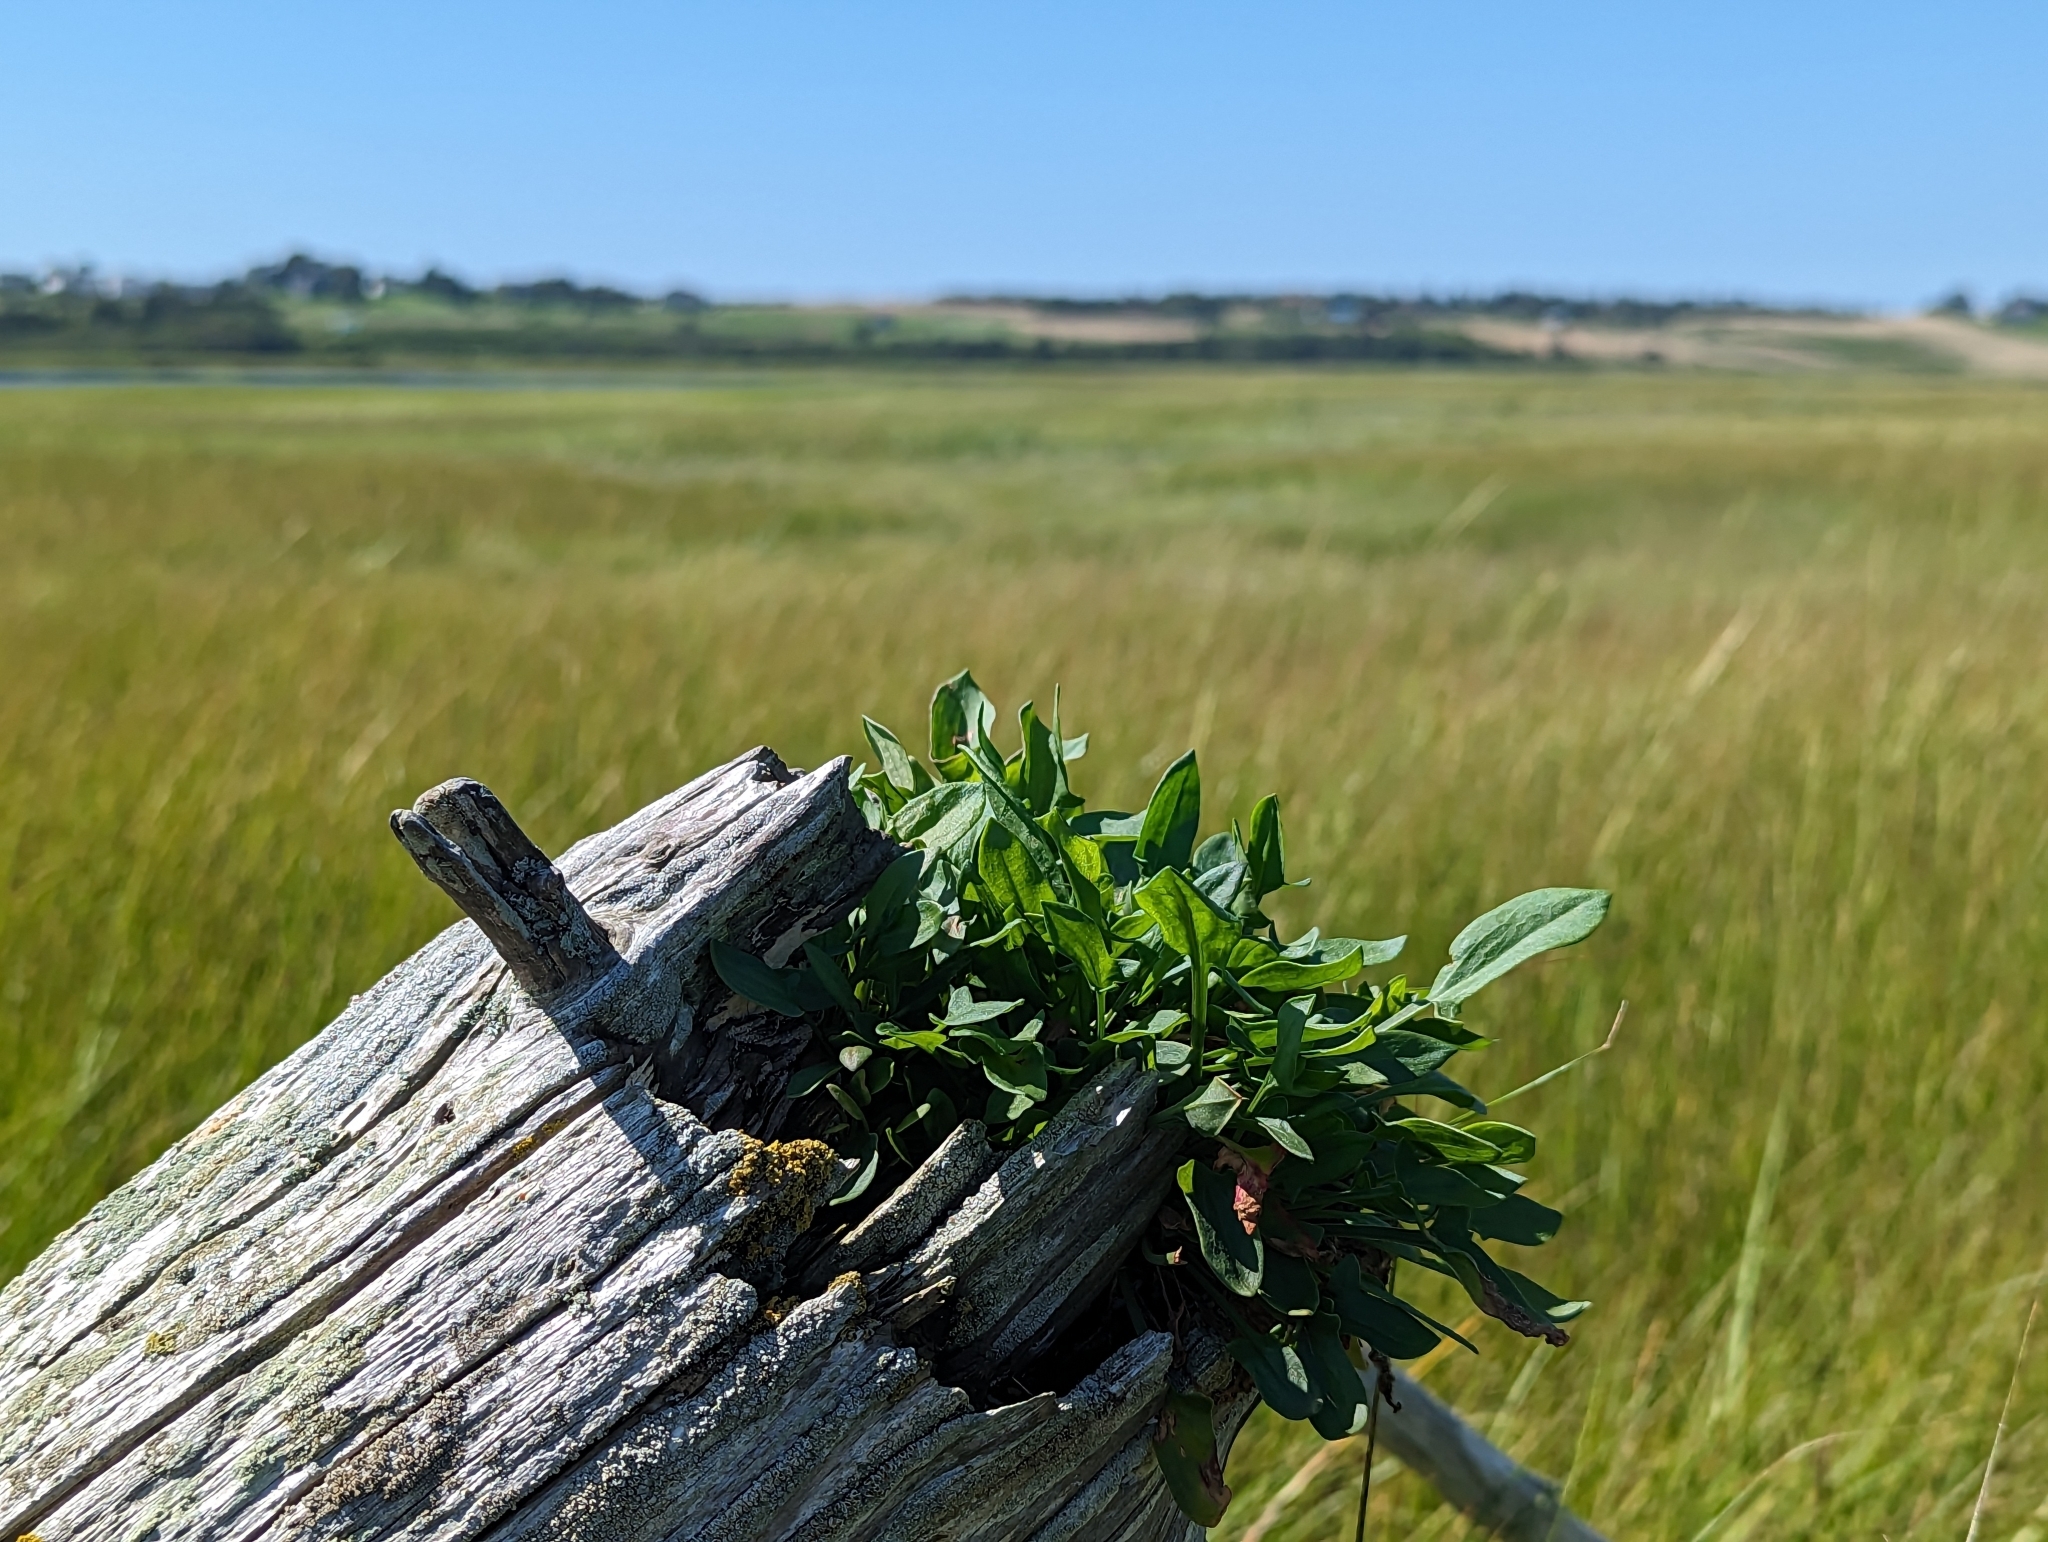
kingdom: Plantae
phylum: Tracheophyta
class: Magnoliopsida
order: Caryophyllales
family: Polygonaceae
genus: Rumex
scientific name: Rumex acetosella
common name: Common sheep sorrel
